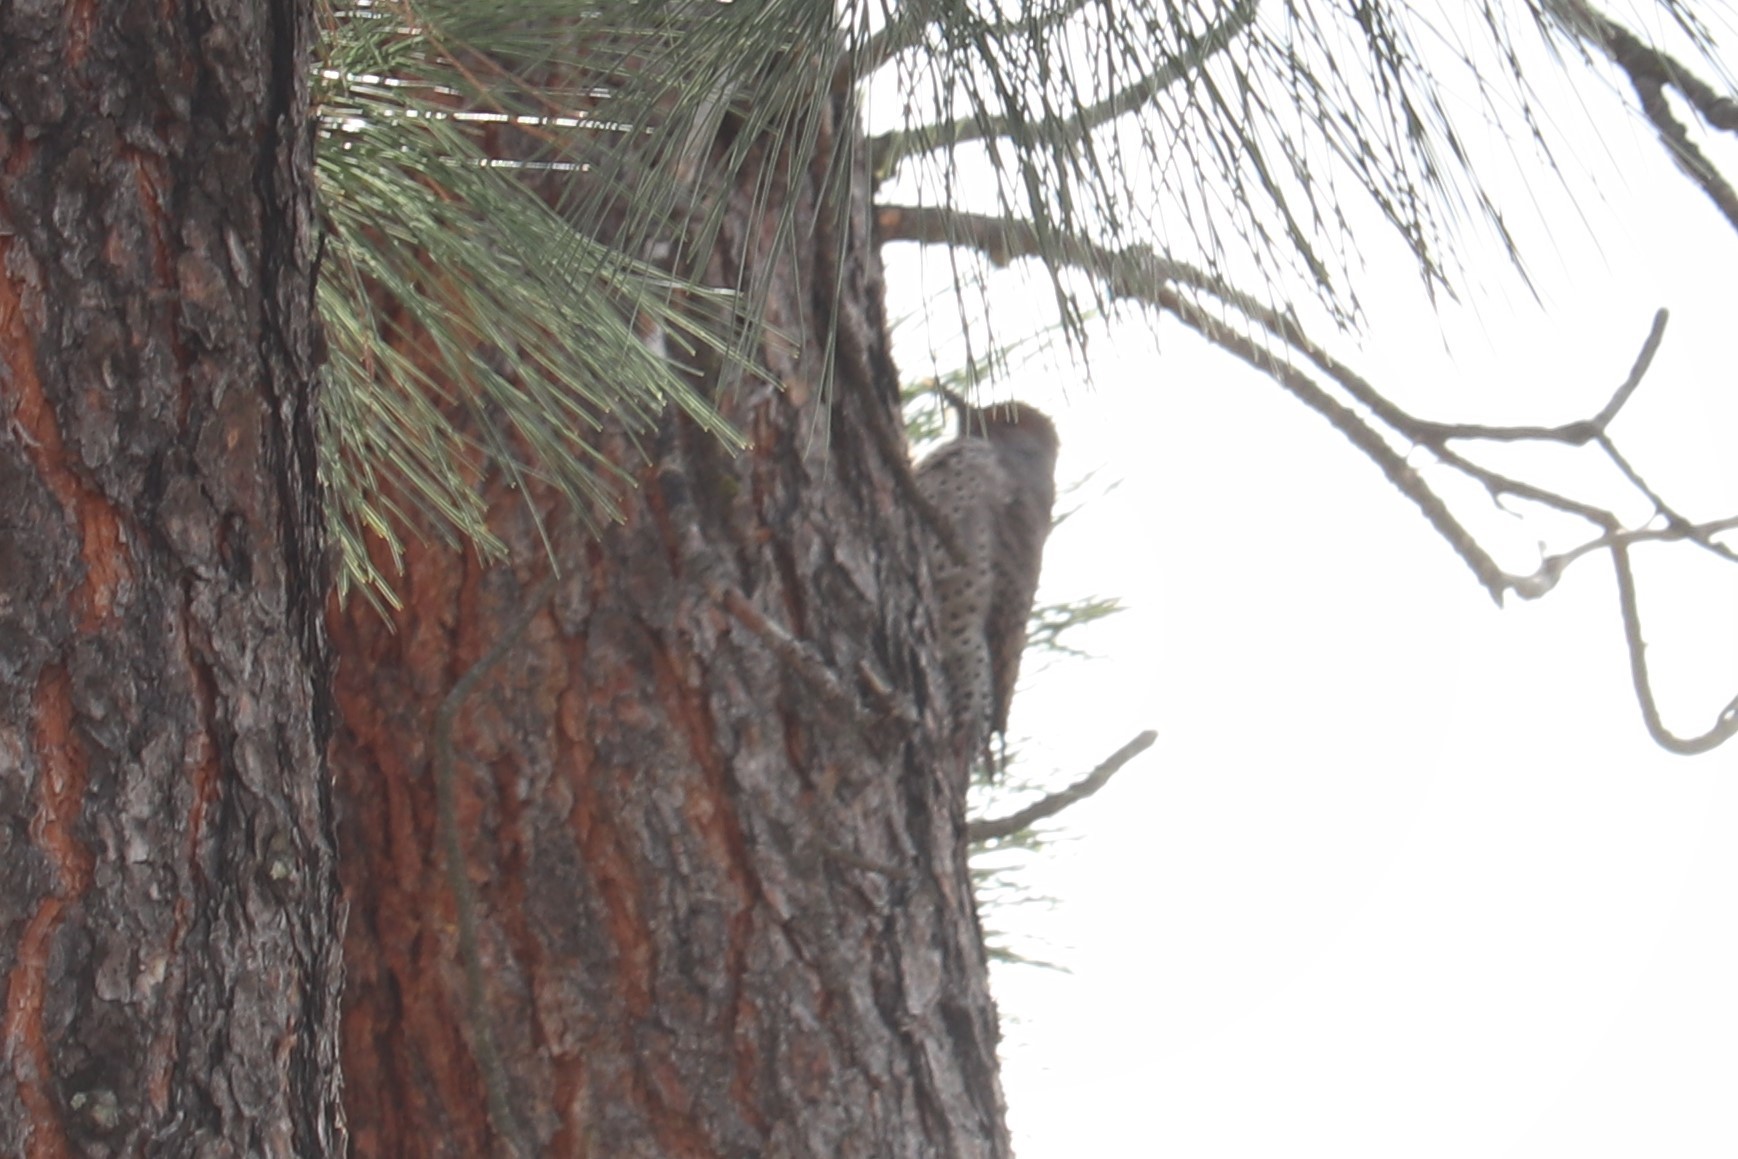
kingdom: Animalia
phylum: Chordata
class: Aves
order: Piciformes
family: Picidae
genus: Colaptes
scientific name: Colaptes auratus
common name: Northern flicker
